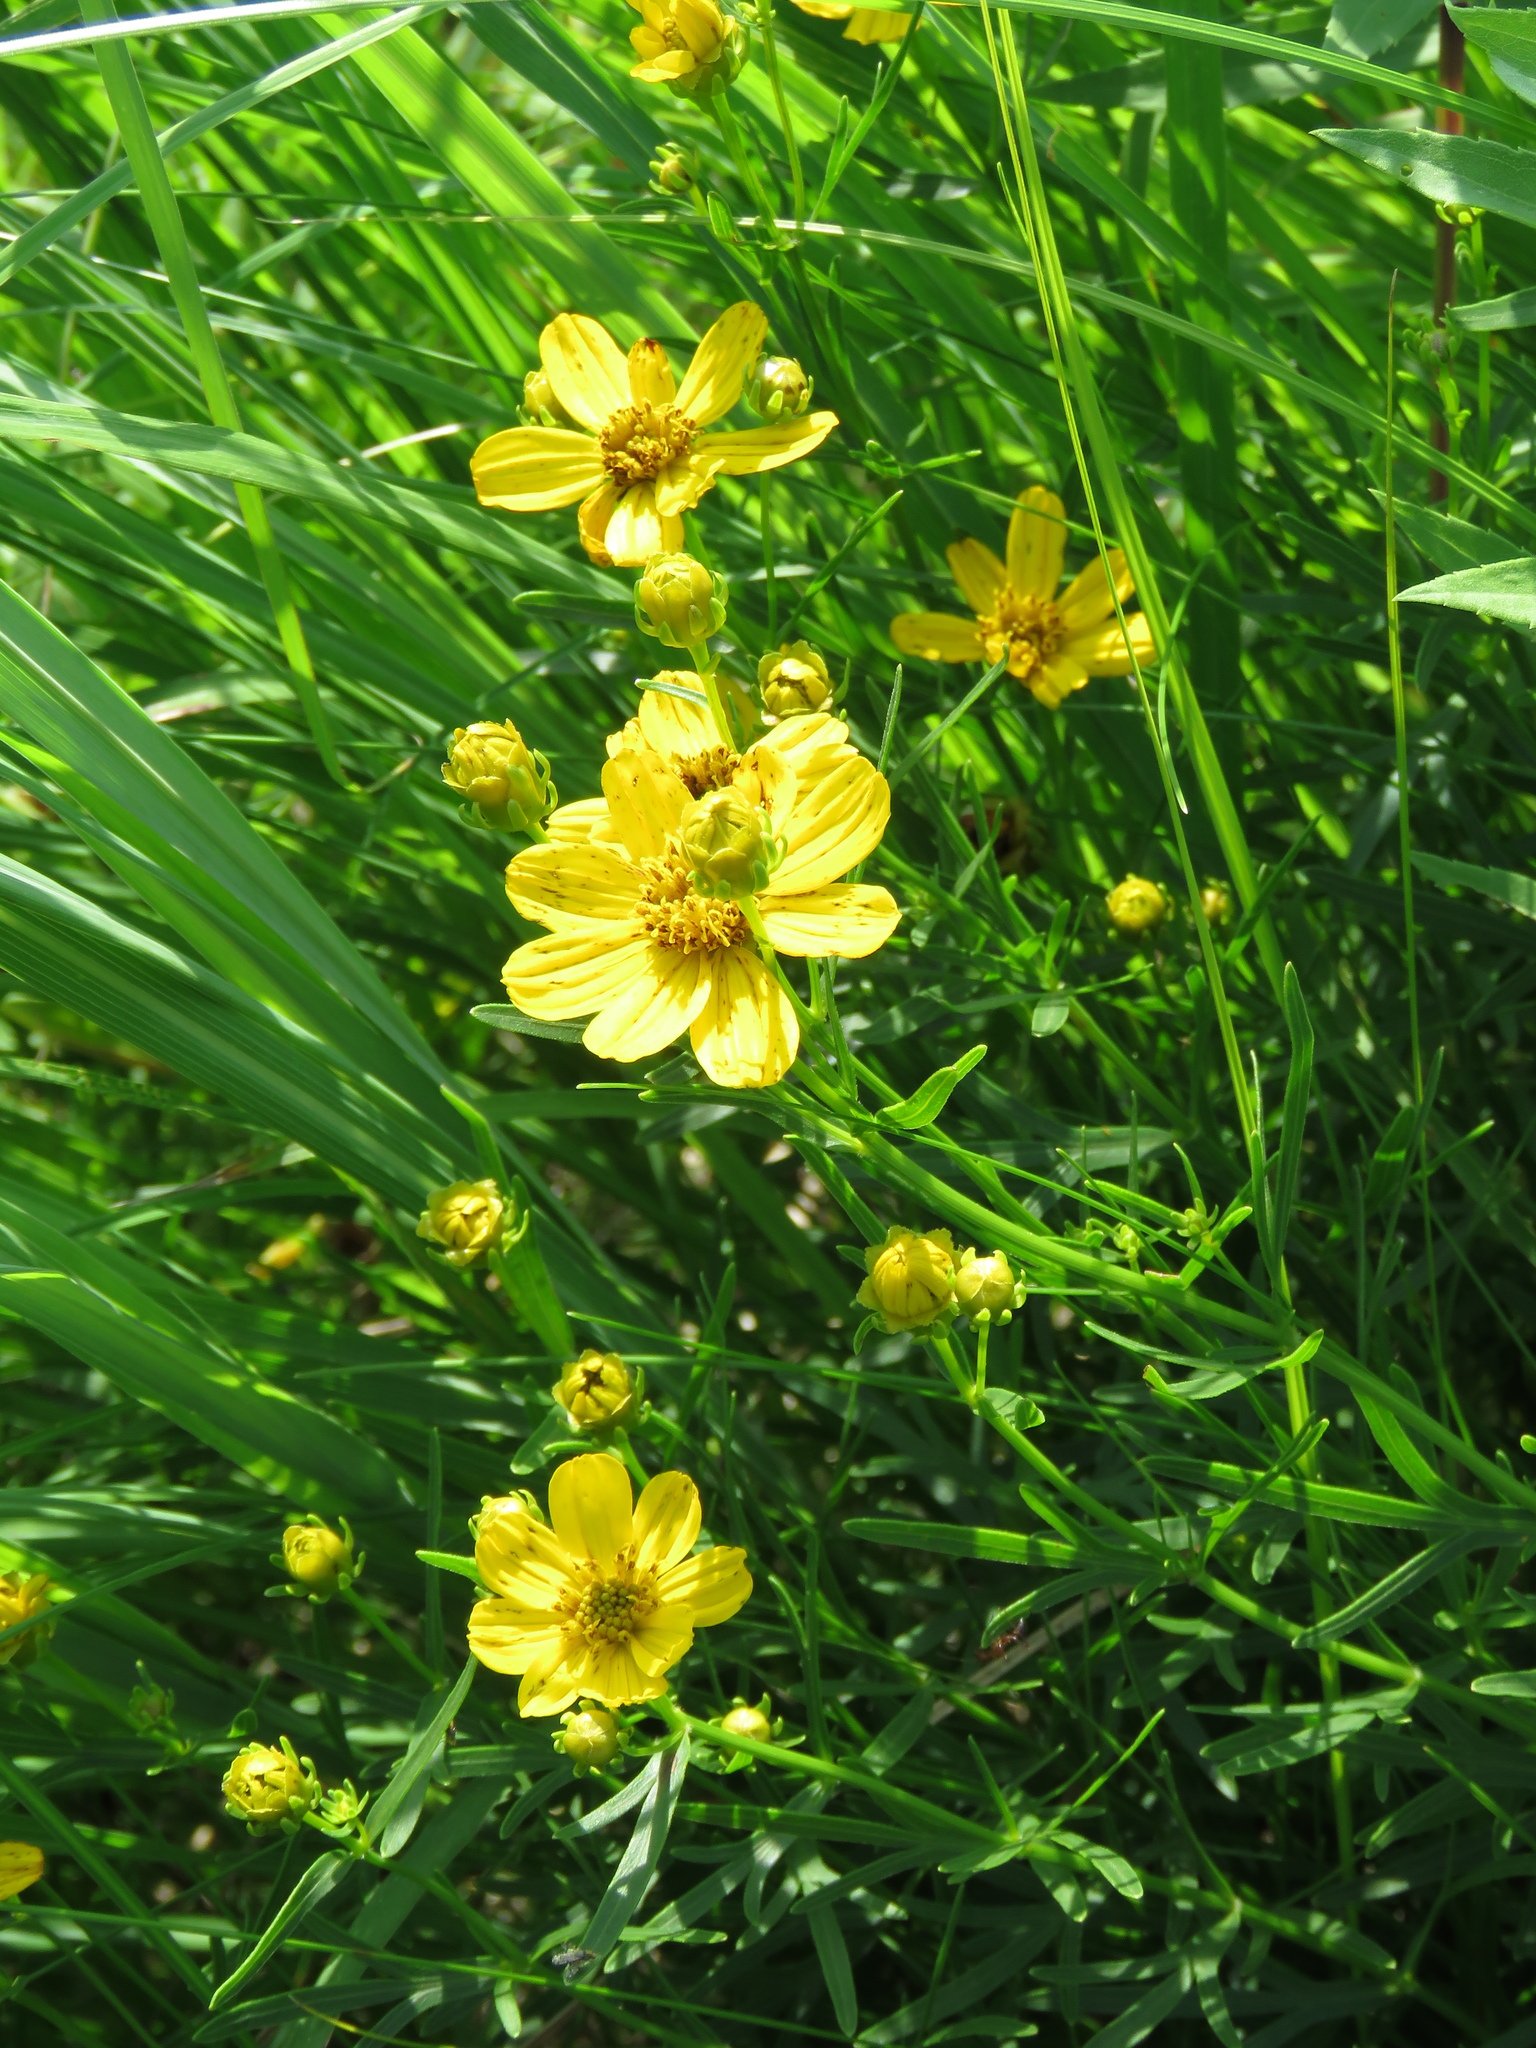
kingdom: Plantae
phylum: Tracheophyta
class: Magnoliopsida
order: Asterales
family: Asteraceae
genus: Coreopsis
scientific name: Coreopsis palmata
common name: Prairie coreopsis
